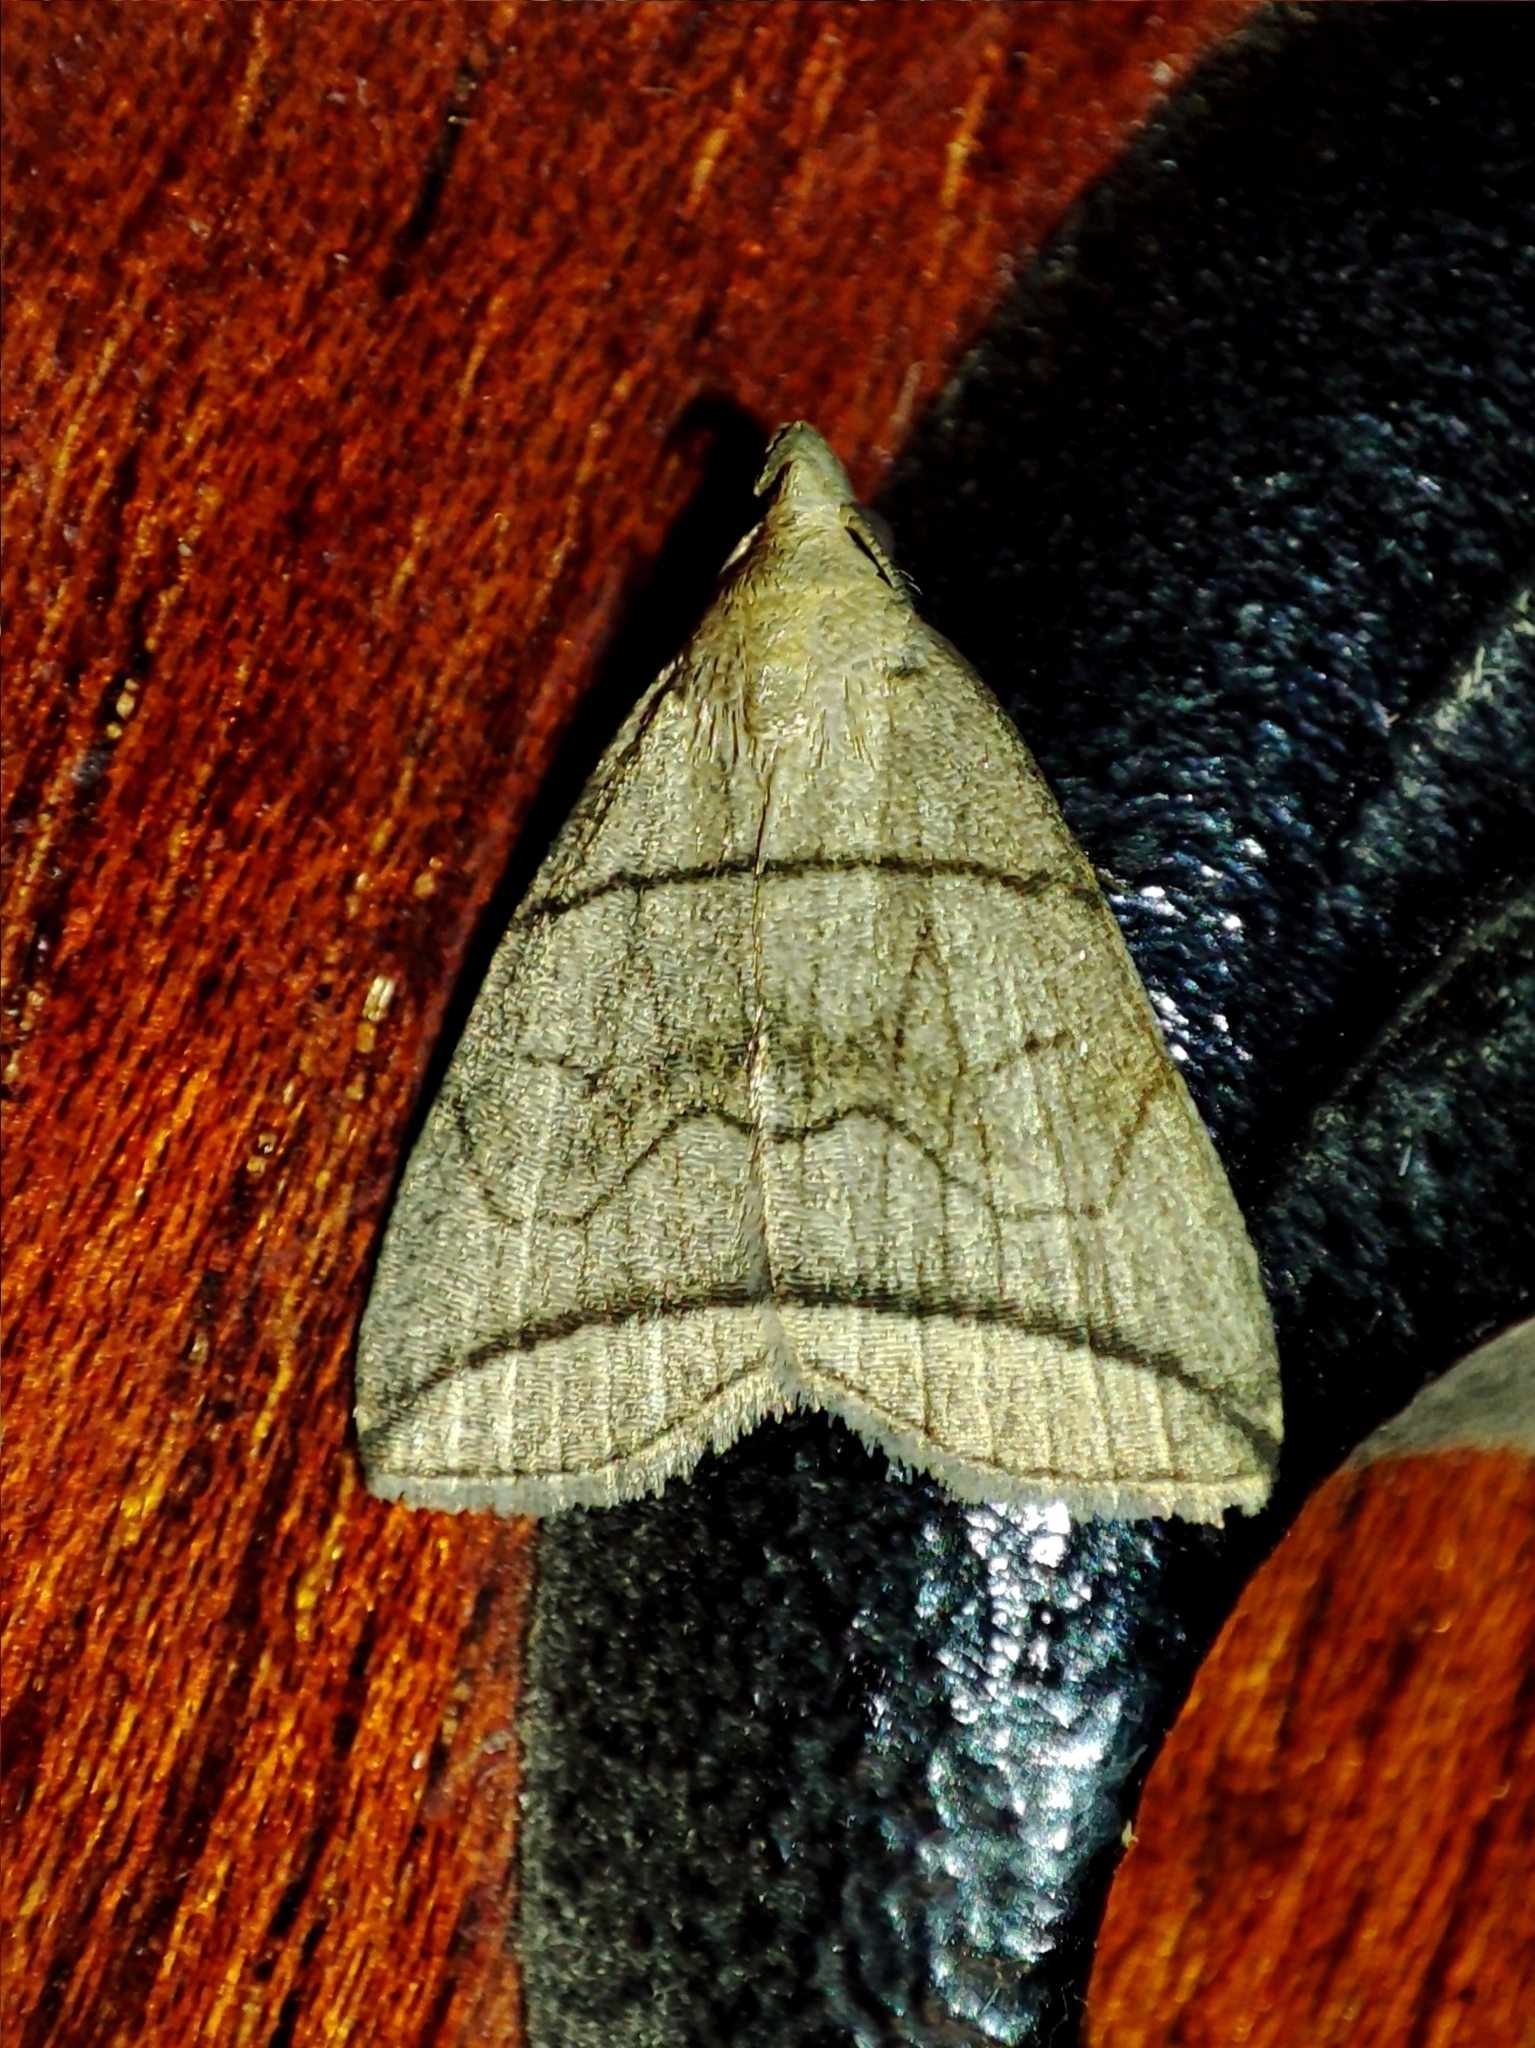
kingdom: Animalia
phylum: Arthropoda
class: Insecta
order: Lepidoptera
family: Erebidae
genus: Herminia
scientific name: Herminia grisealis
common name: Small fan-foot
